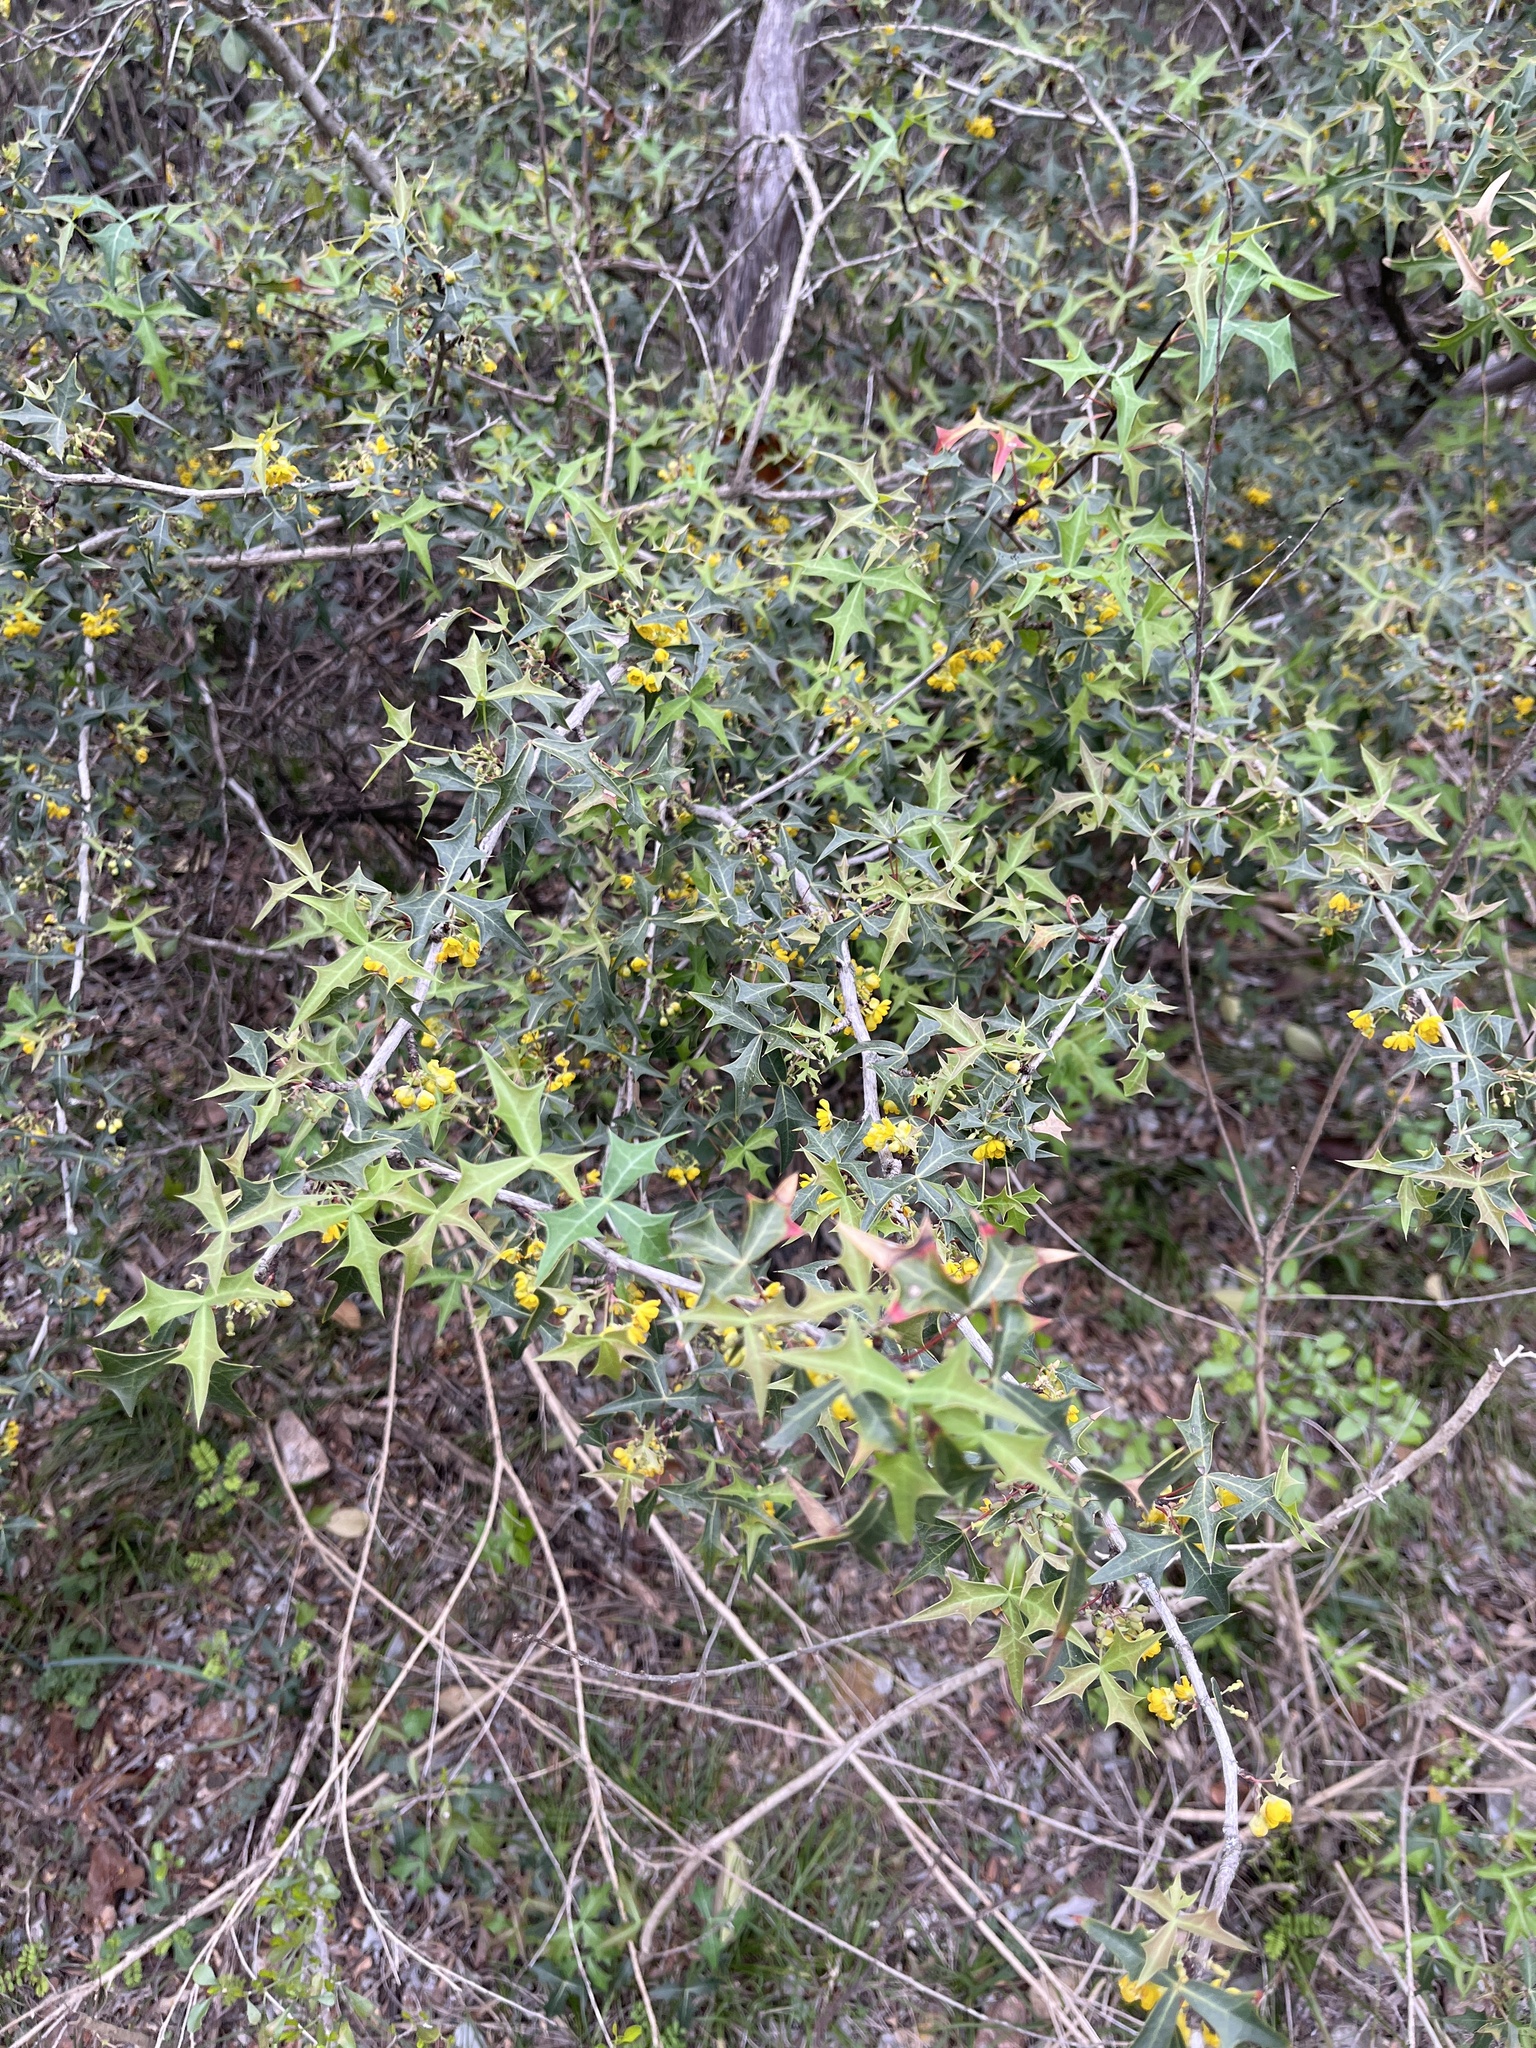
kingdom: Plantae
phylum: Tracheophyta
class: Magnoliopsida
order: Ranunculales
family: Berberidaceae
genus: Alloberberis
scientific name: Alloberberis trifoliolata
